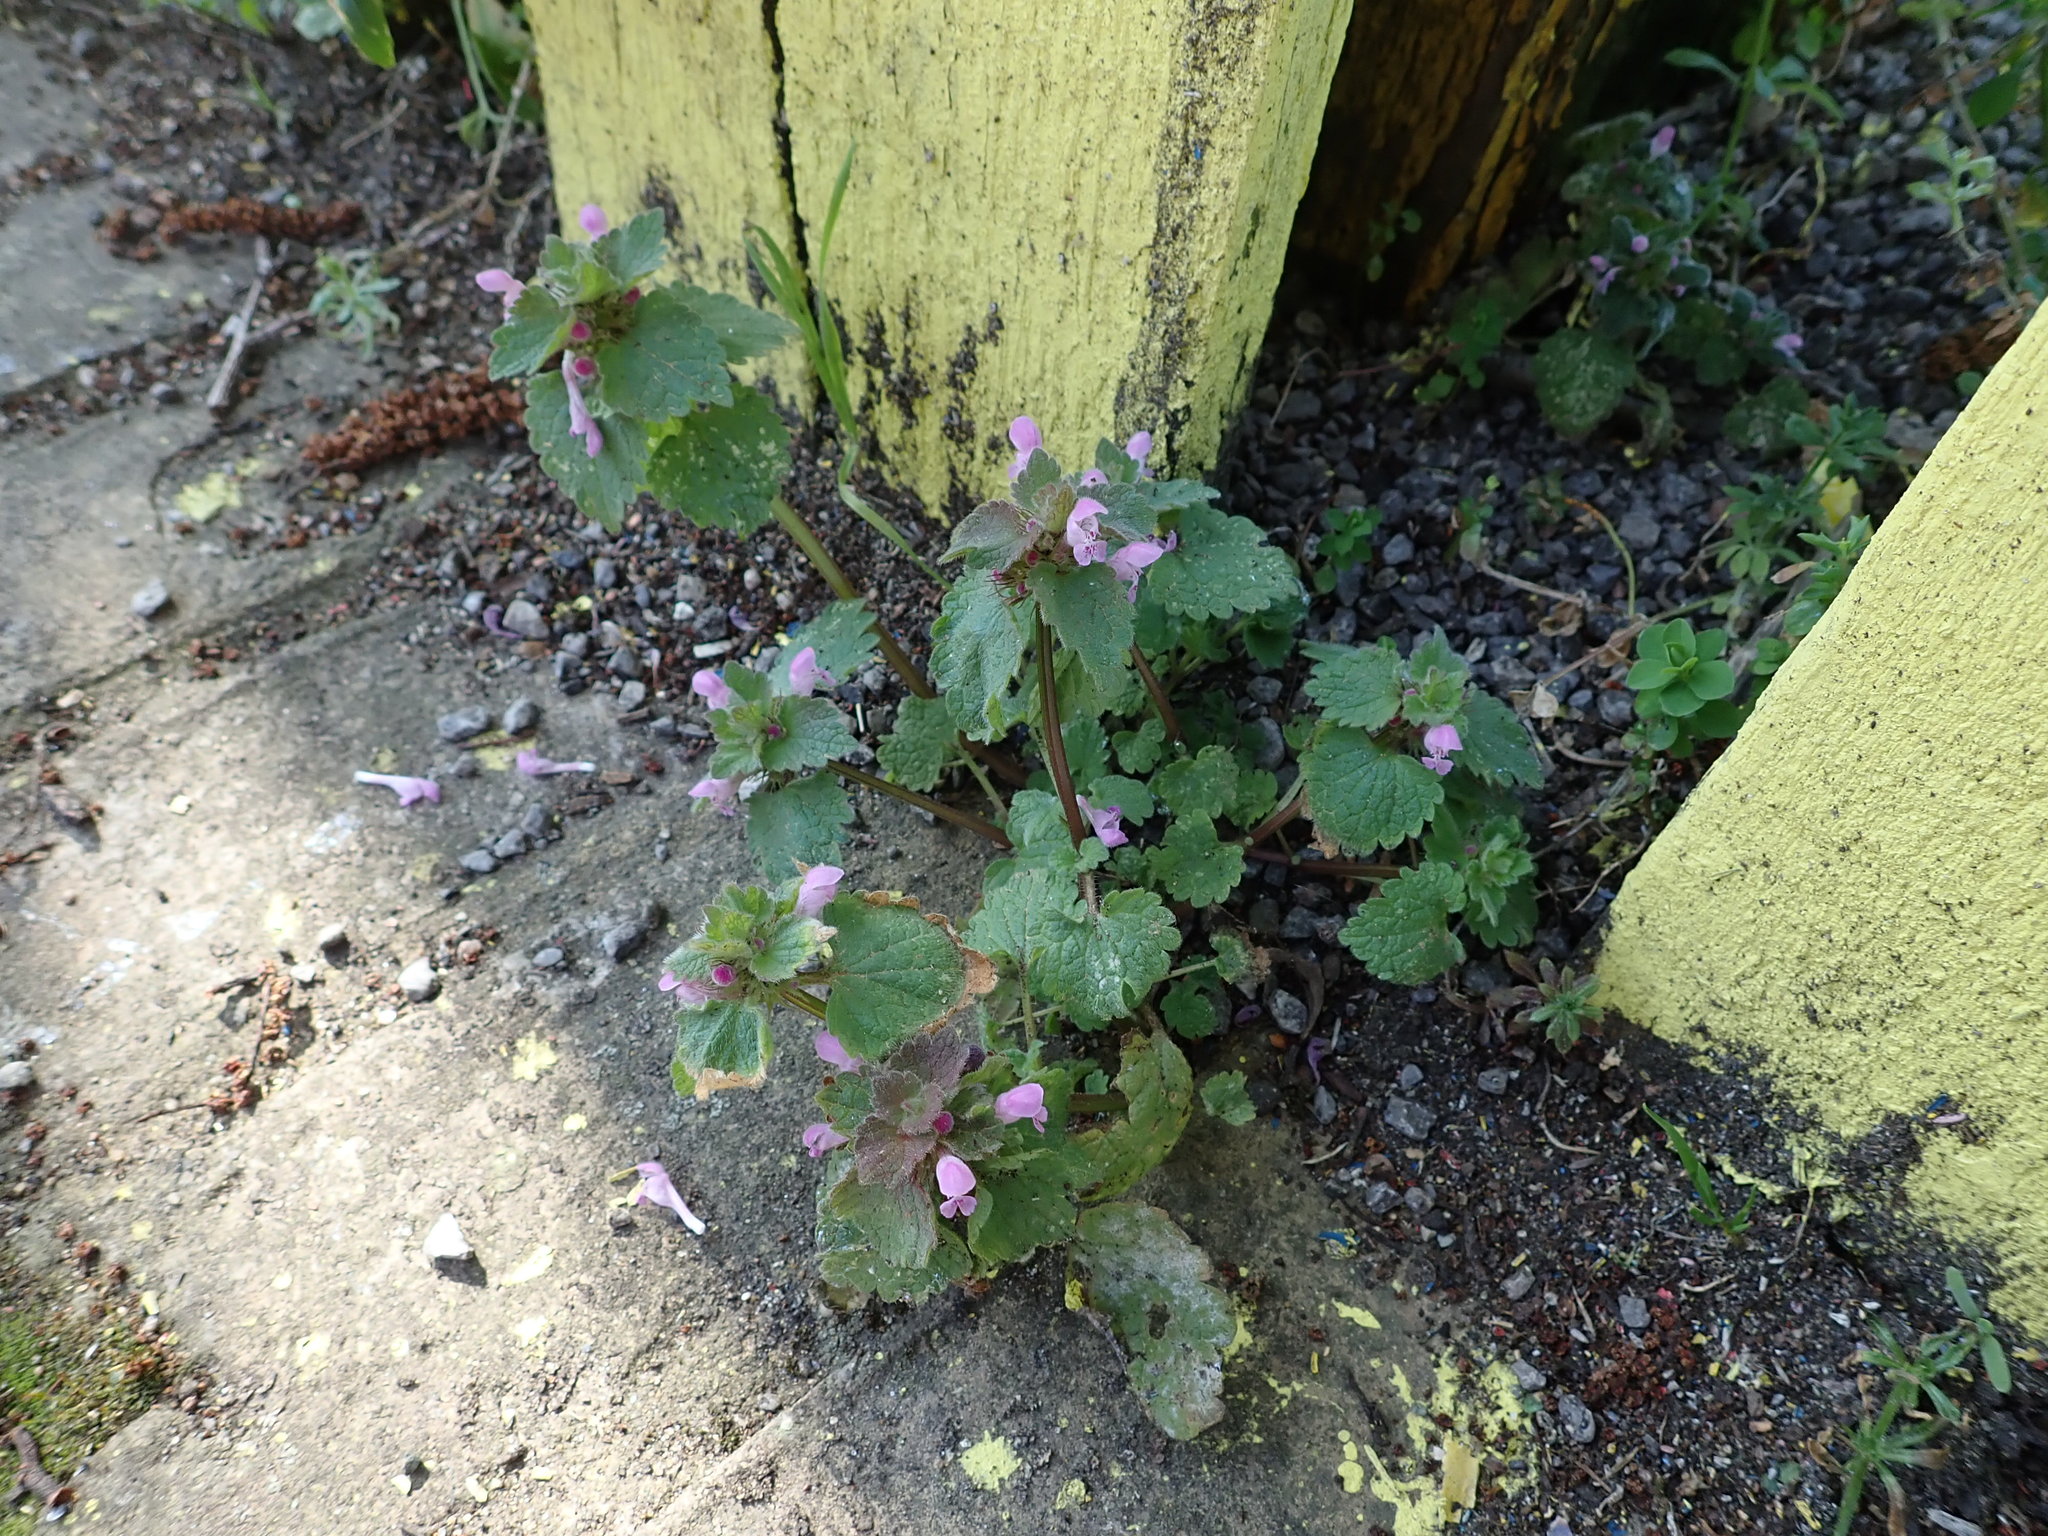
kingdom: Plantae
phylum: Tracheophyta
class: Magnoliopsida
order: Lamiales
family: Lamiaceae
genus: Lamium
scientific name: Lamium purpureum
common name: Red dead-nettle
